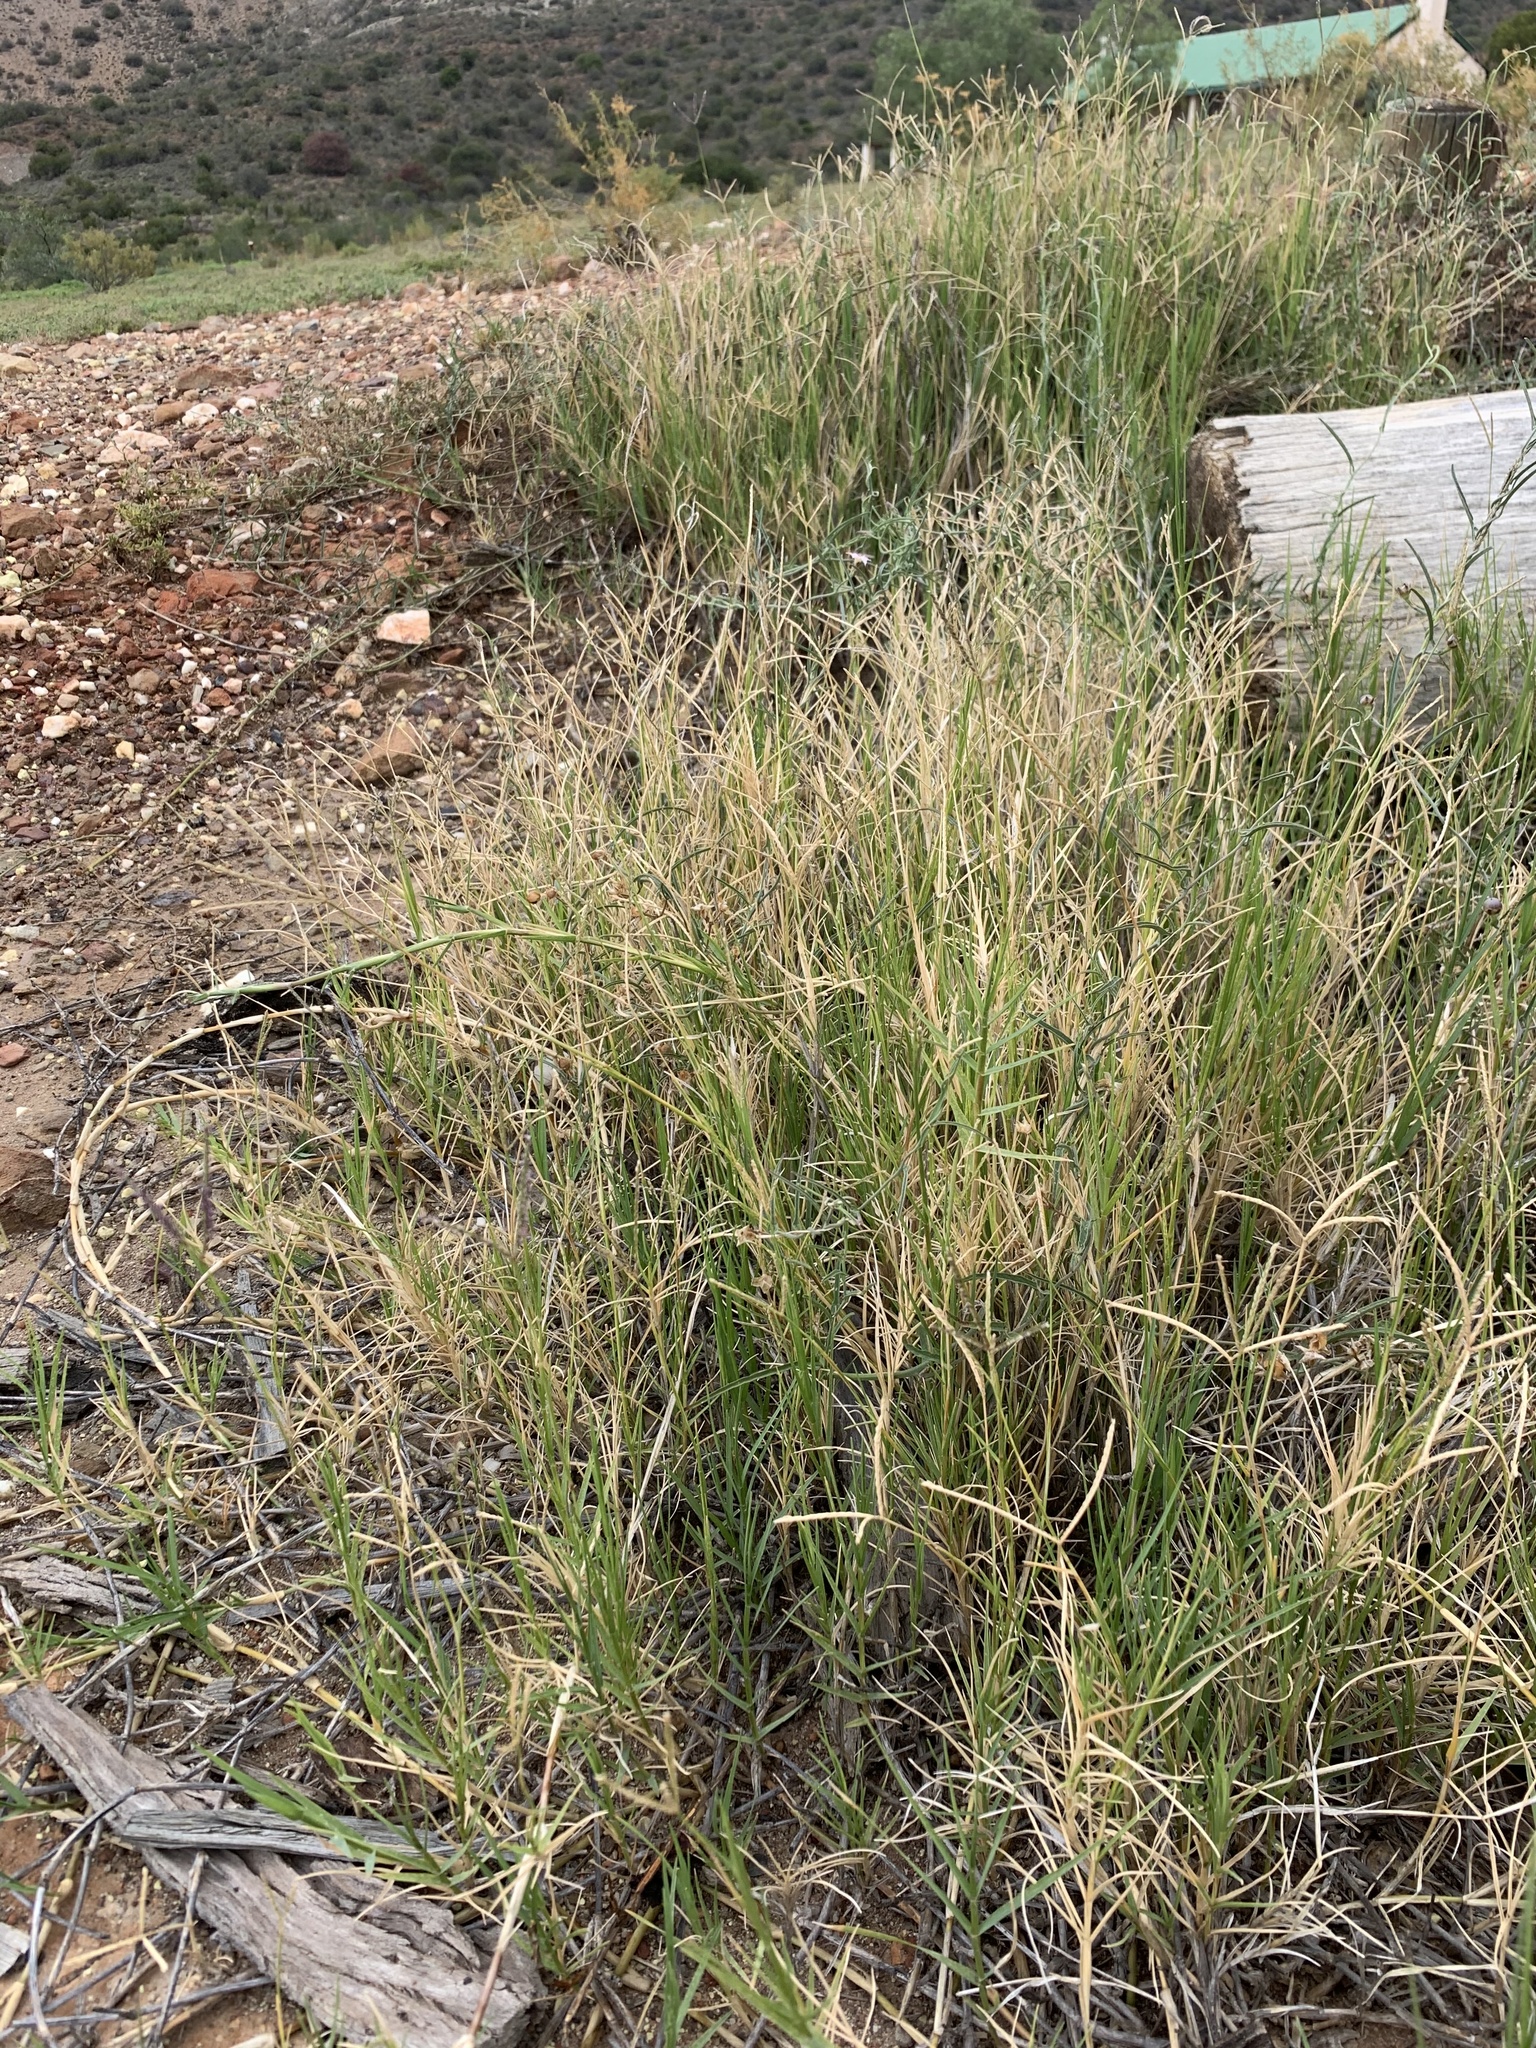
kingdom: Plantae
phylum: Tracheophyta
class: Liliopsida
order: Poales
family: Poaceae
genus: Cynodon
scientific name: Cynodon dactylon
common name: Bermuda grass
